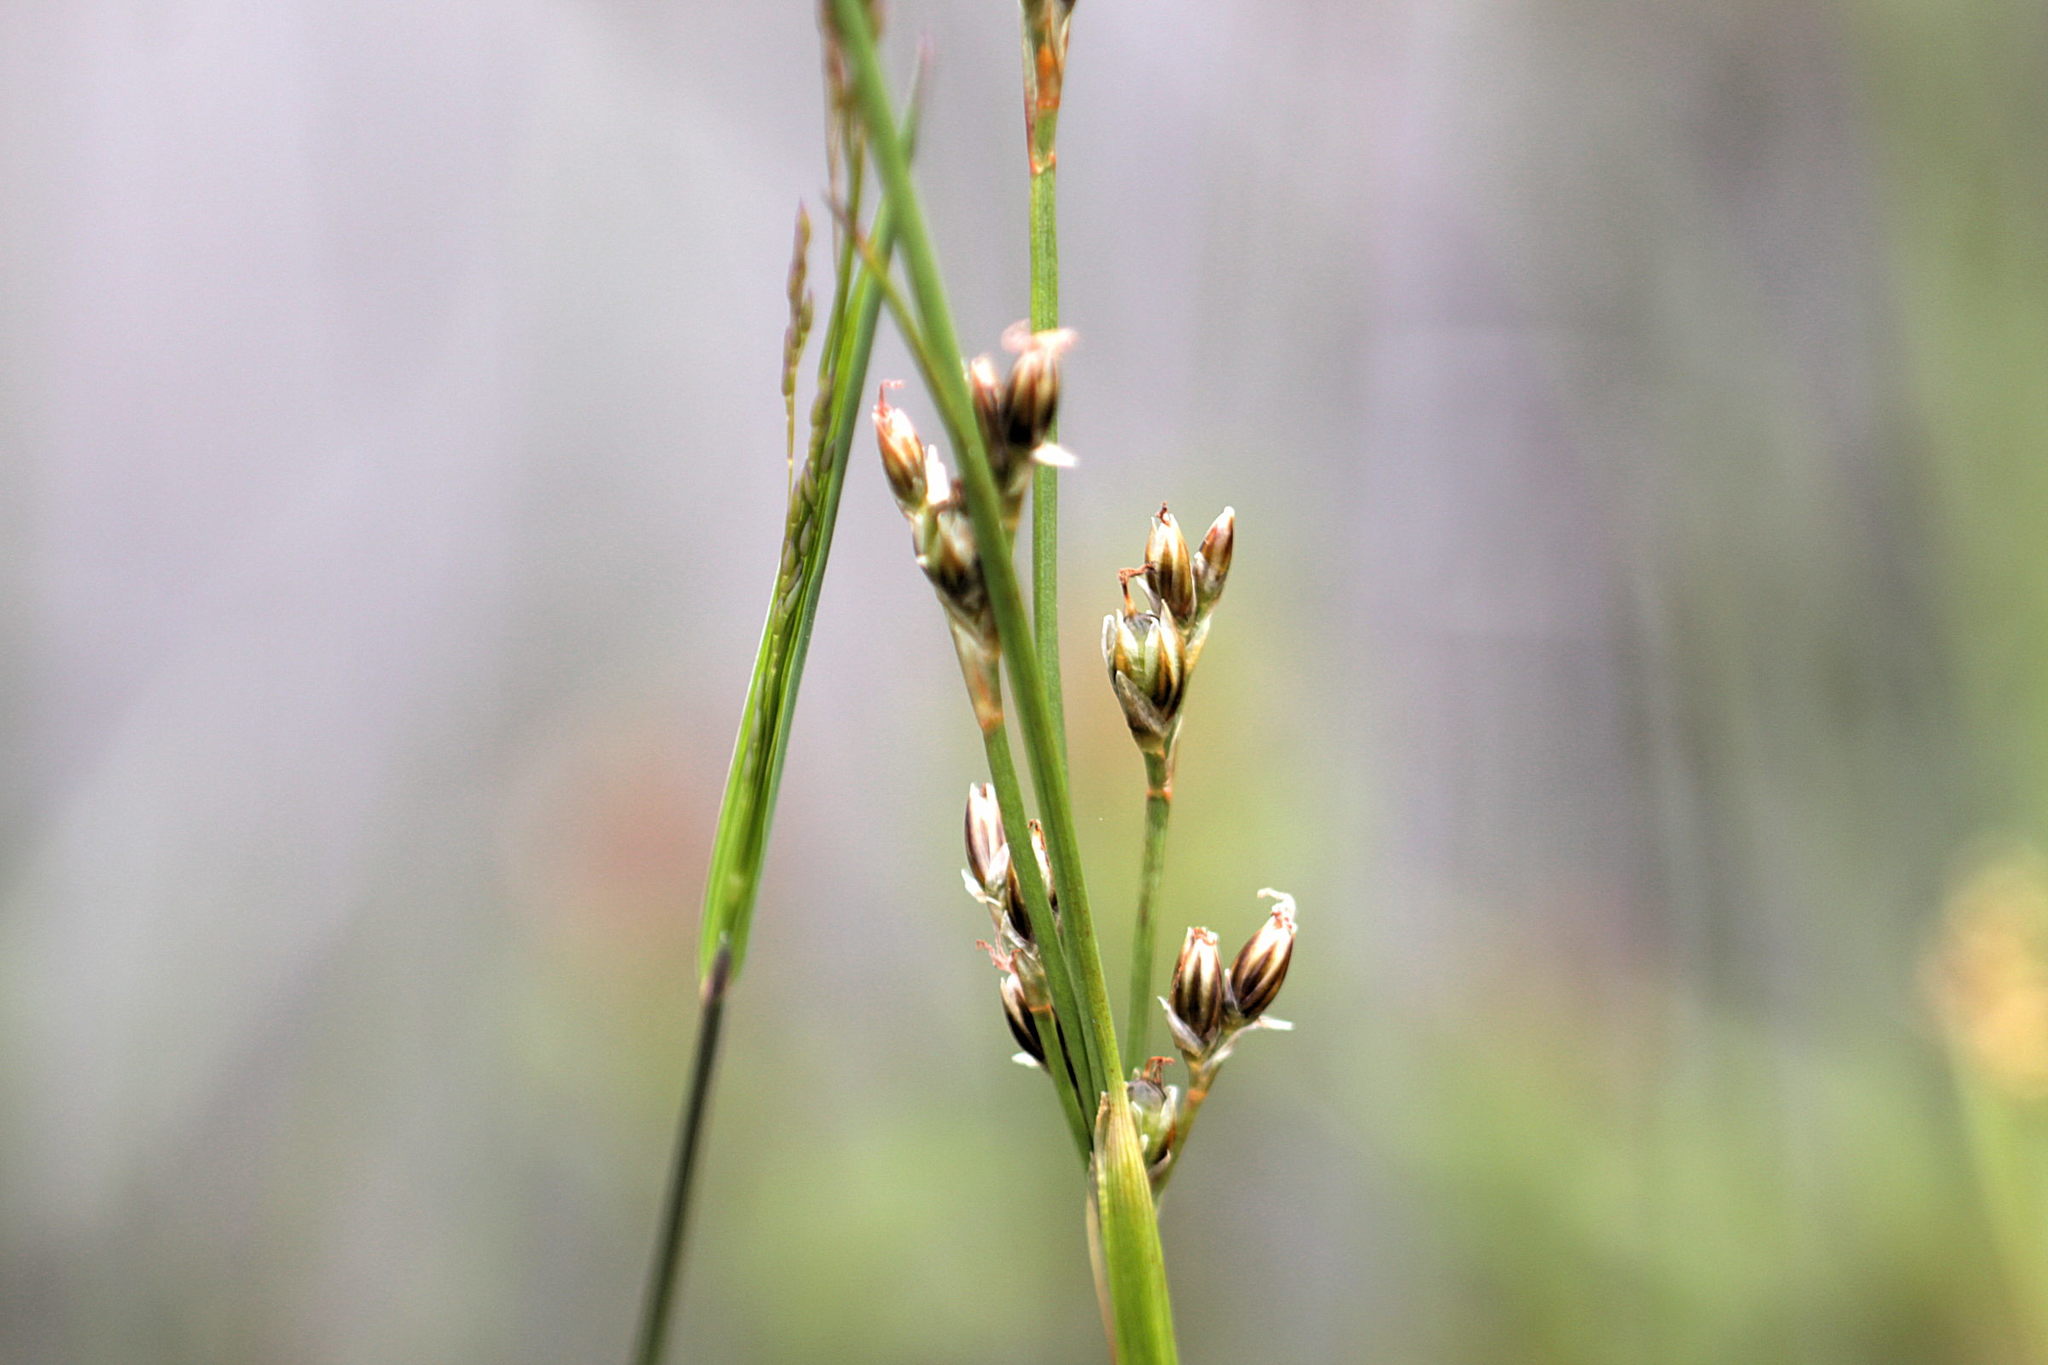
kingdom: Plantae
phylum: Tracheophyta
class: Liliopsida
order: Poales
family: Juncaceae
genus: Juncus
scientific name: Juncus squarrosus
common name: Heath rush
